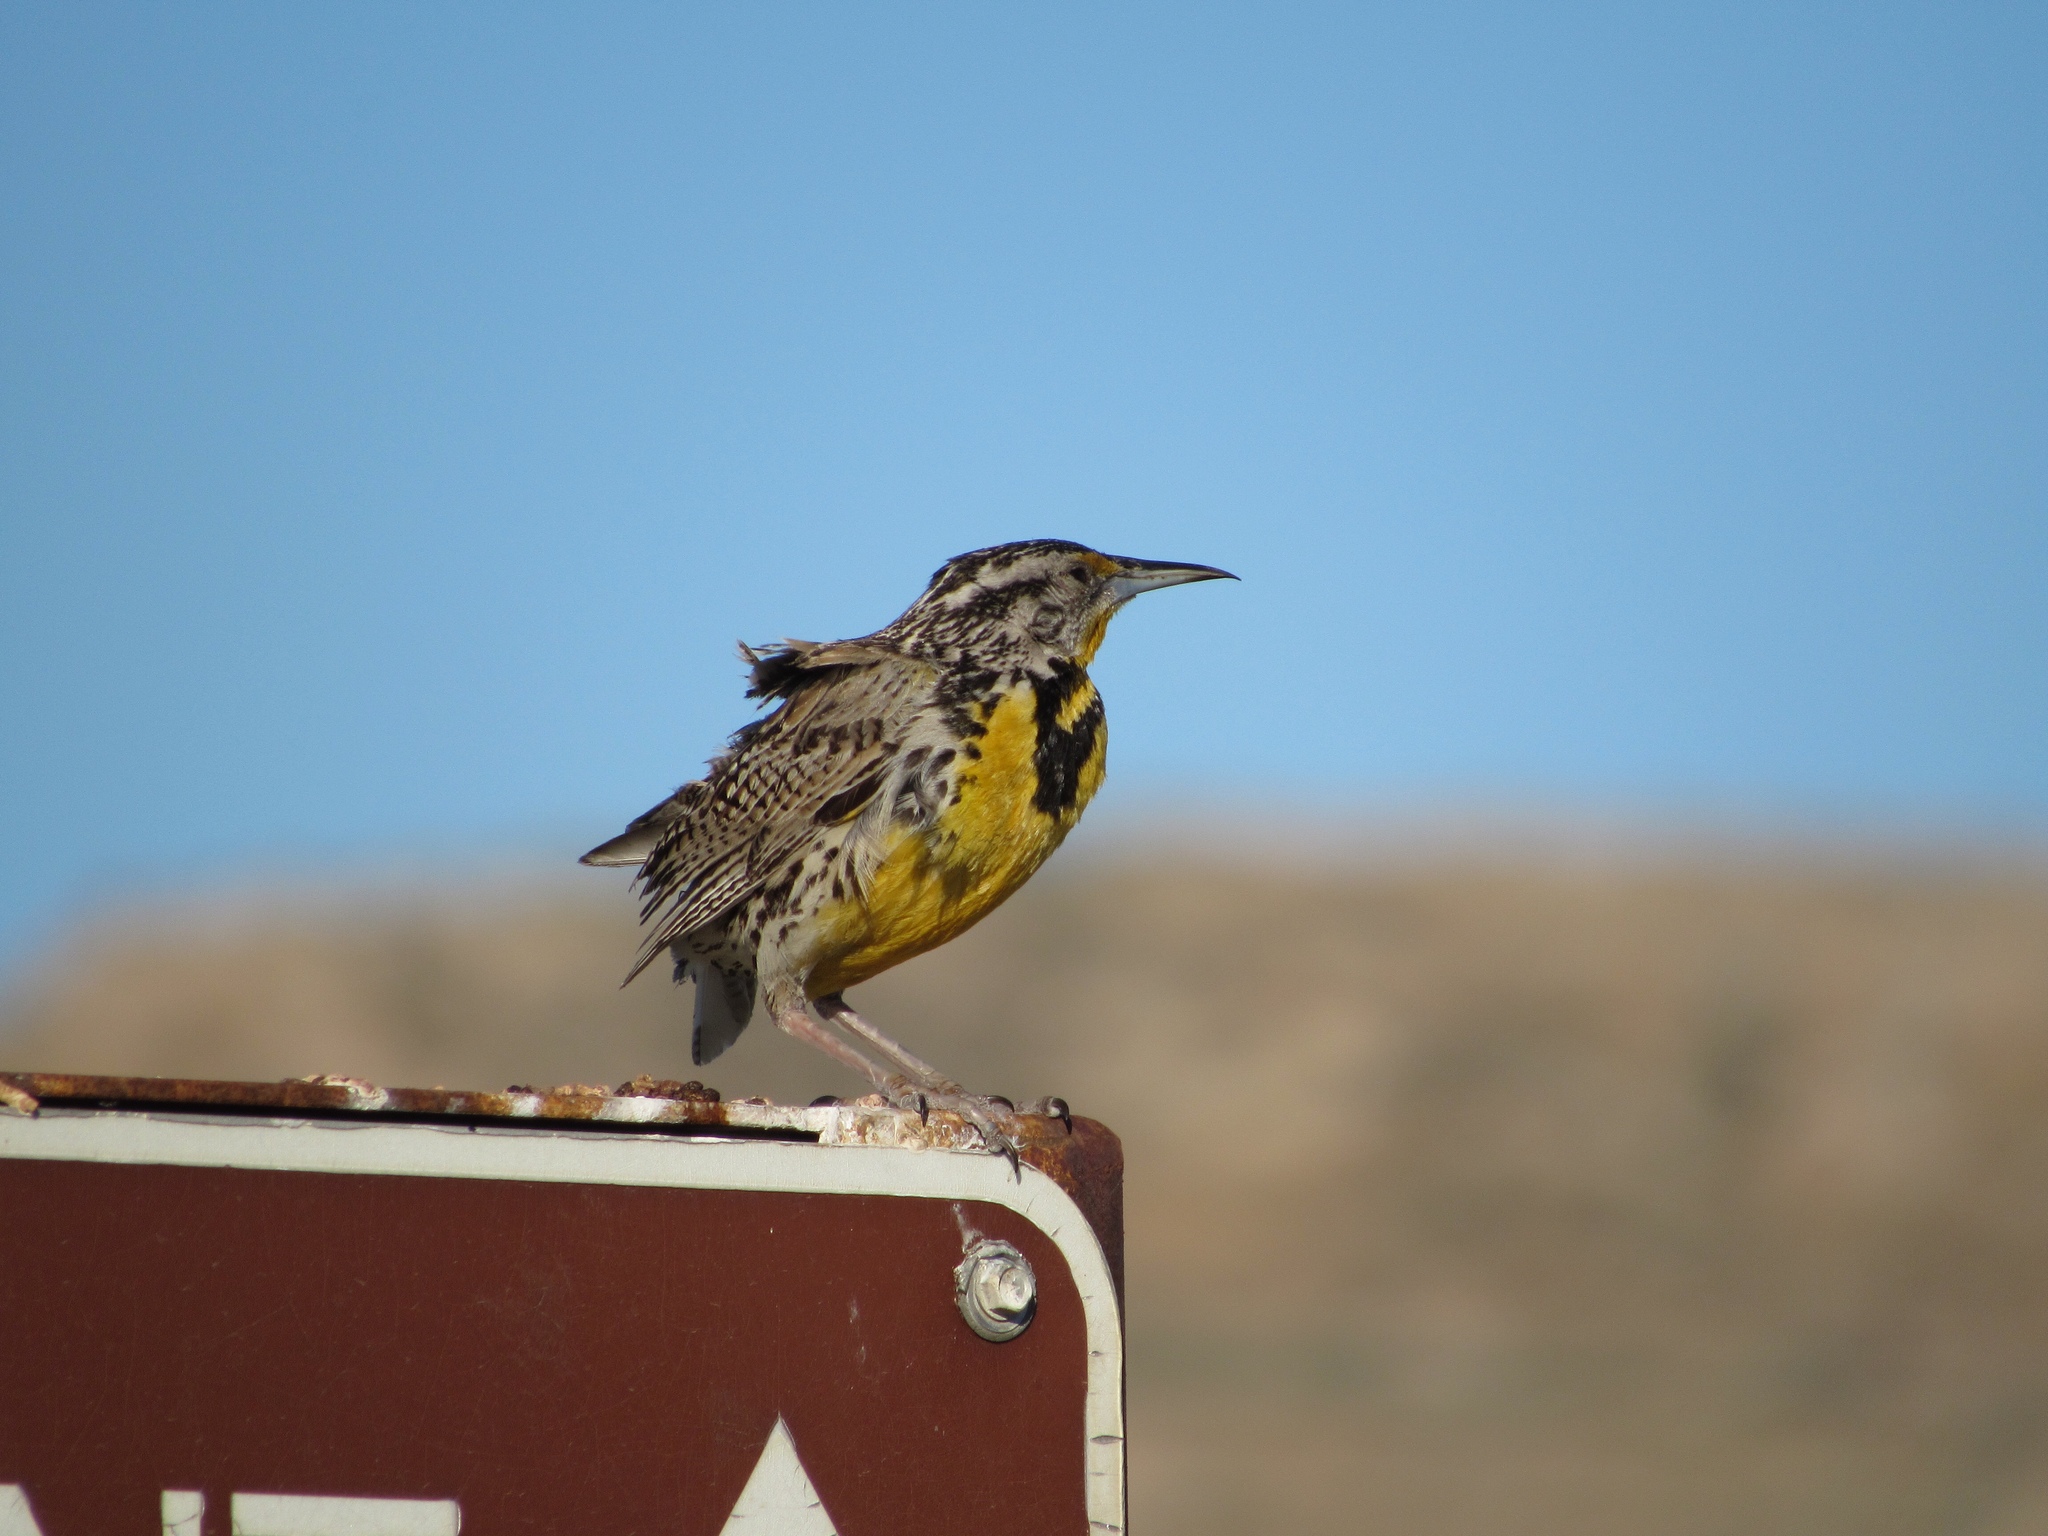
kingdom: Animalia
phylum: Chordata
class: Aves
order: Passeriformes
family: Icteridae
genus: Sturnella
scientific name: Sturnella neglecta
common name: Western meadowlark
